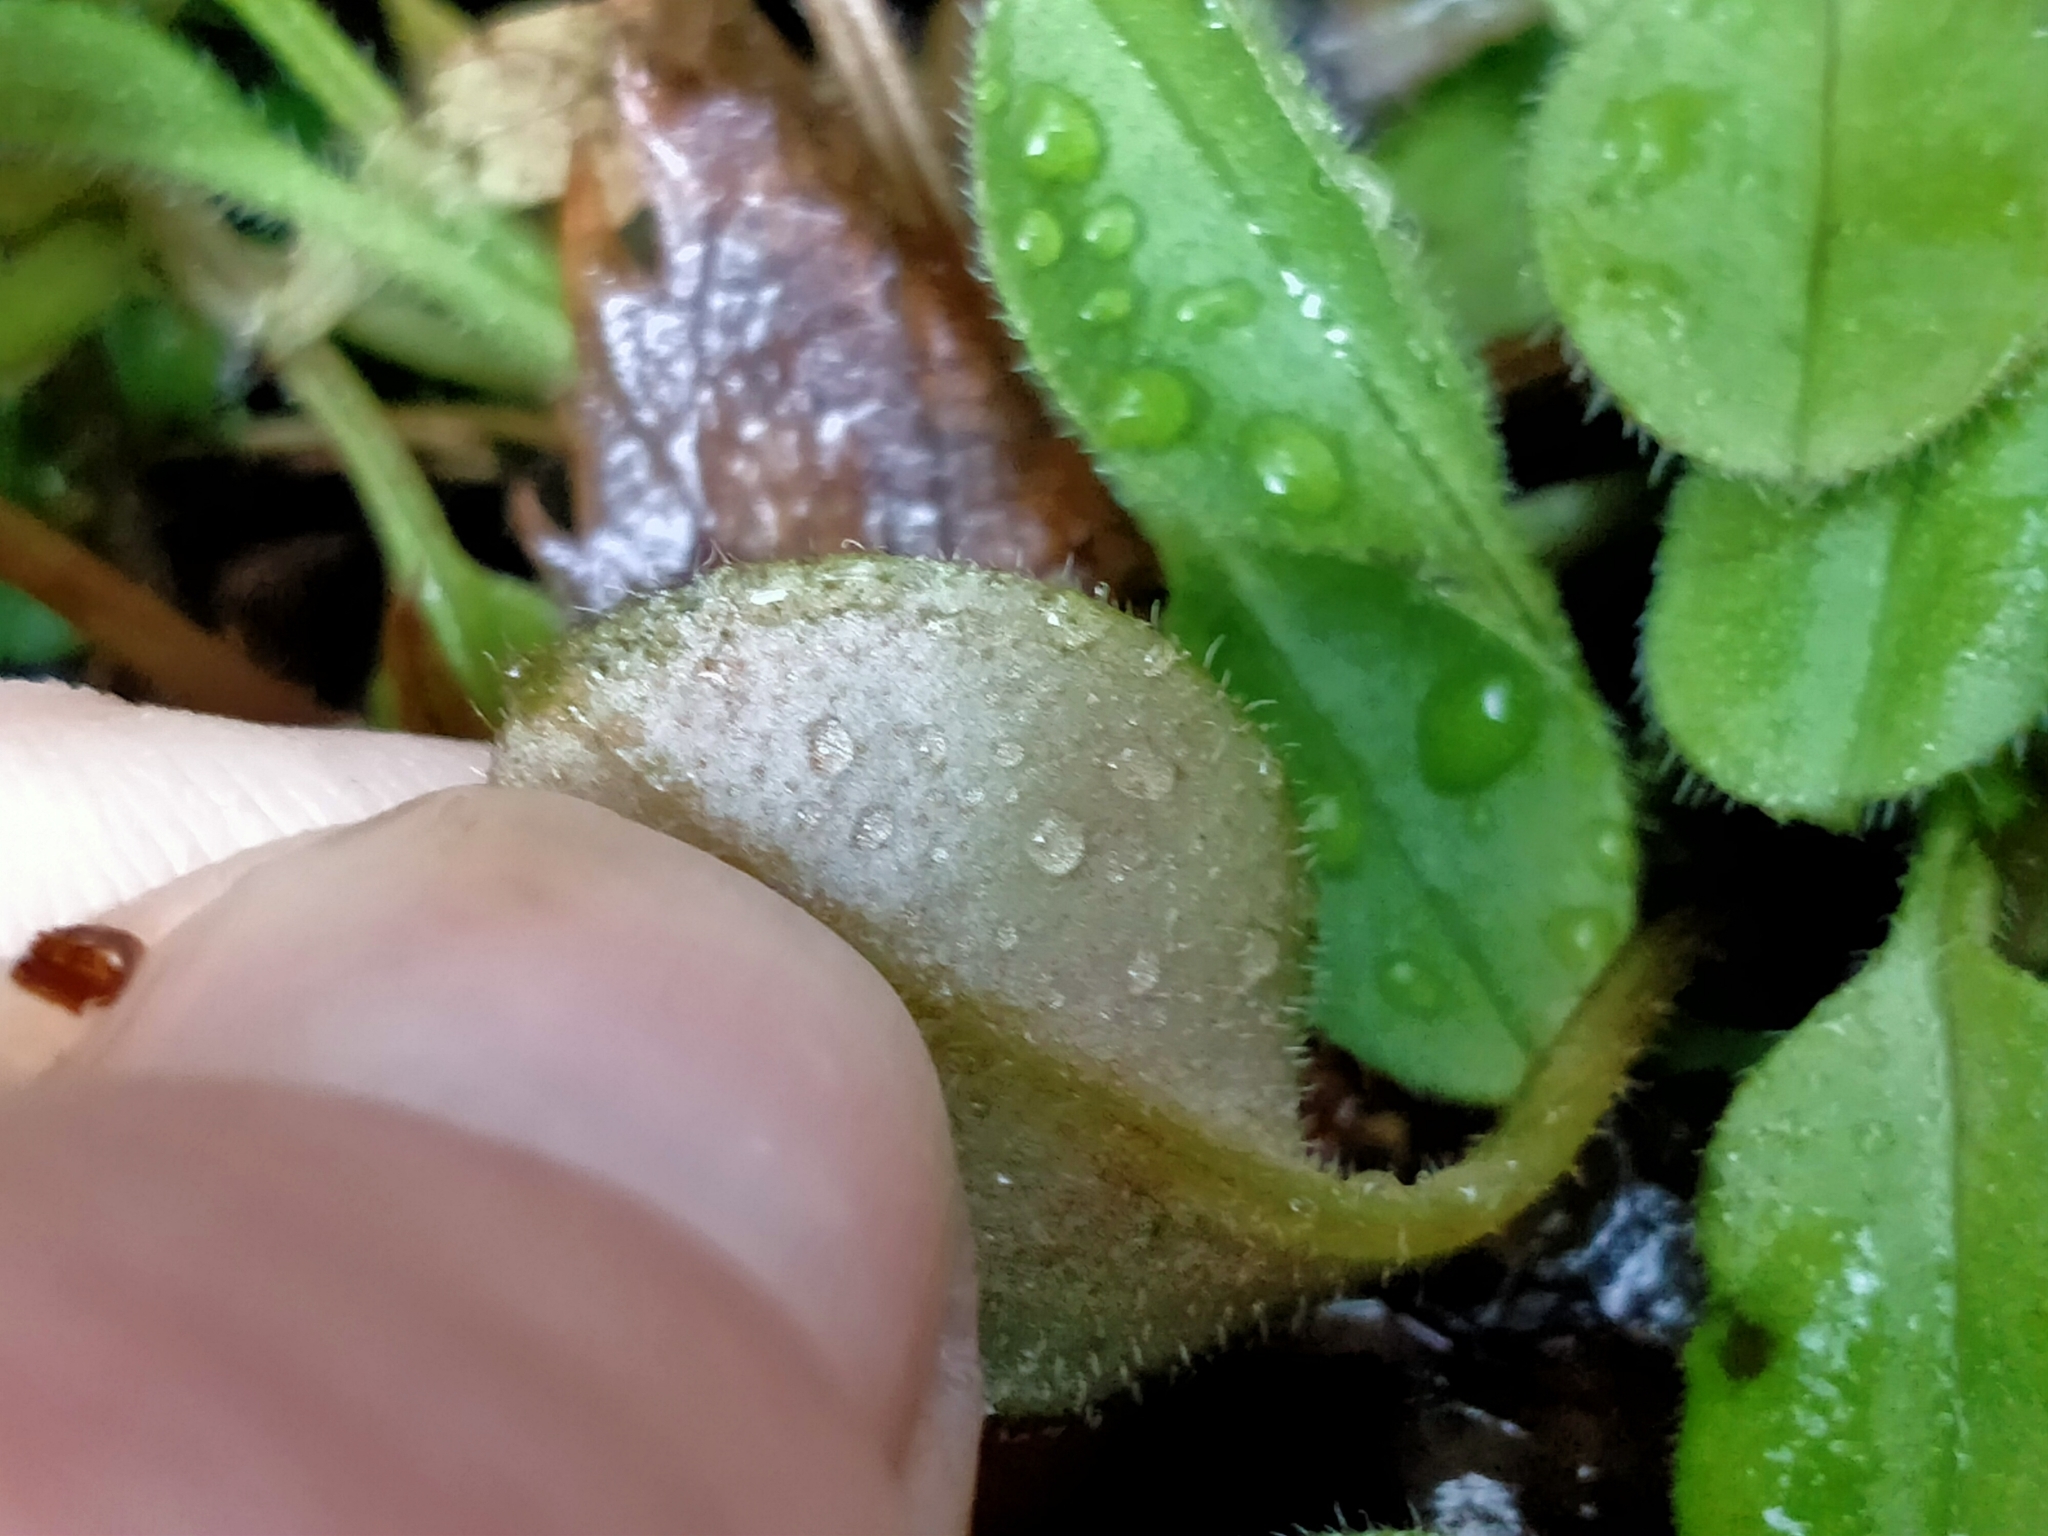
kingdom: Plantae
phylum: Tracheophyta
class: Magnoliopsida
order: Boraginales
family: Boraginaceae
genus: Myosotis
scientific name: Myosotis forsteri
